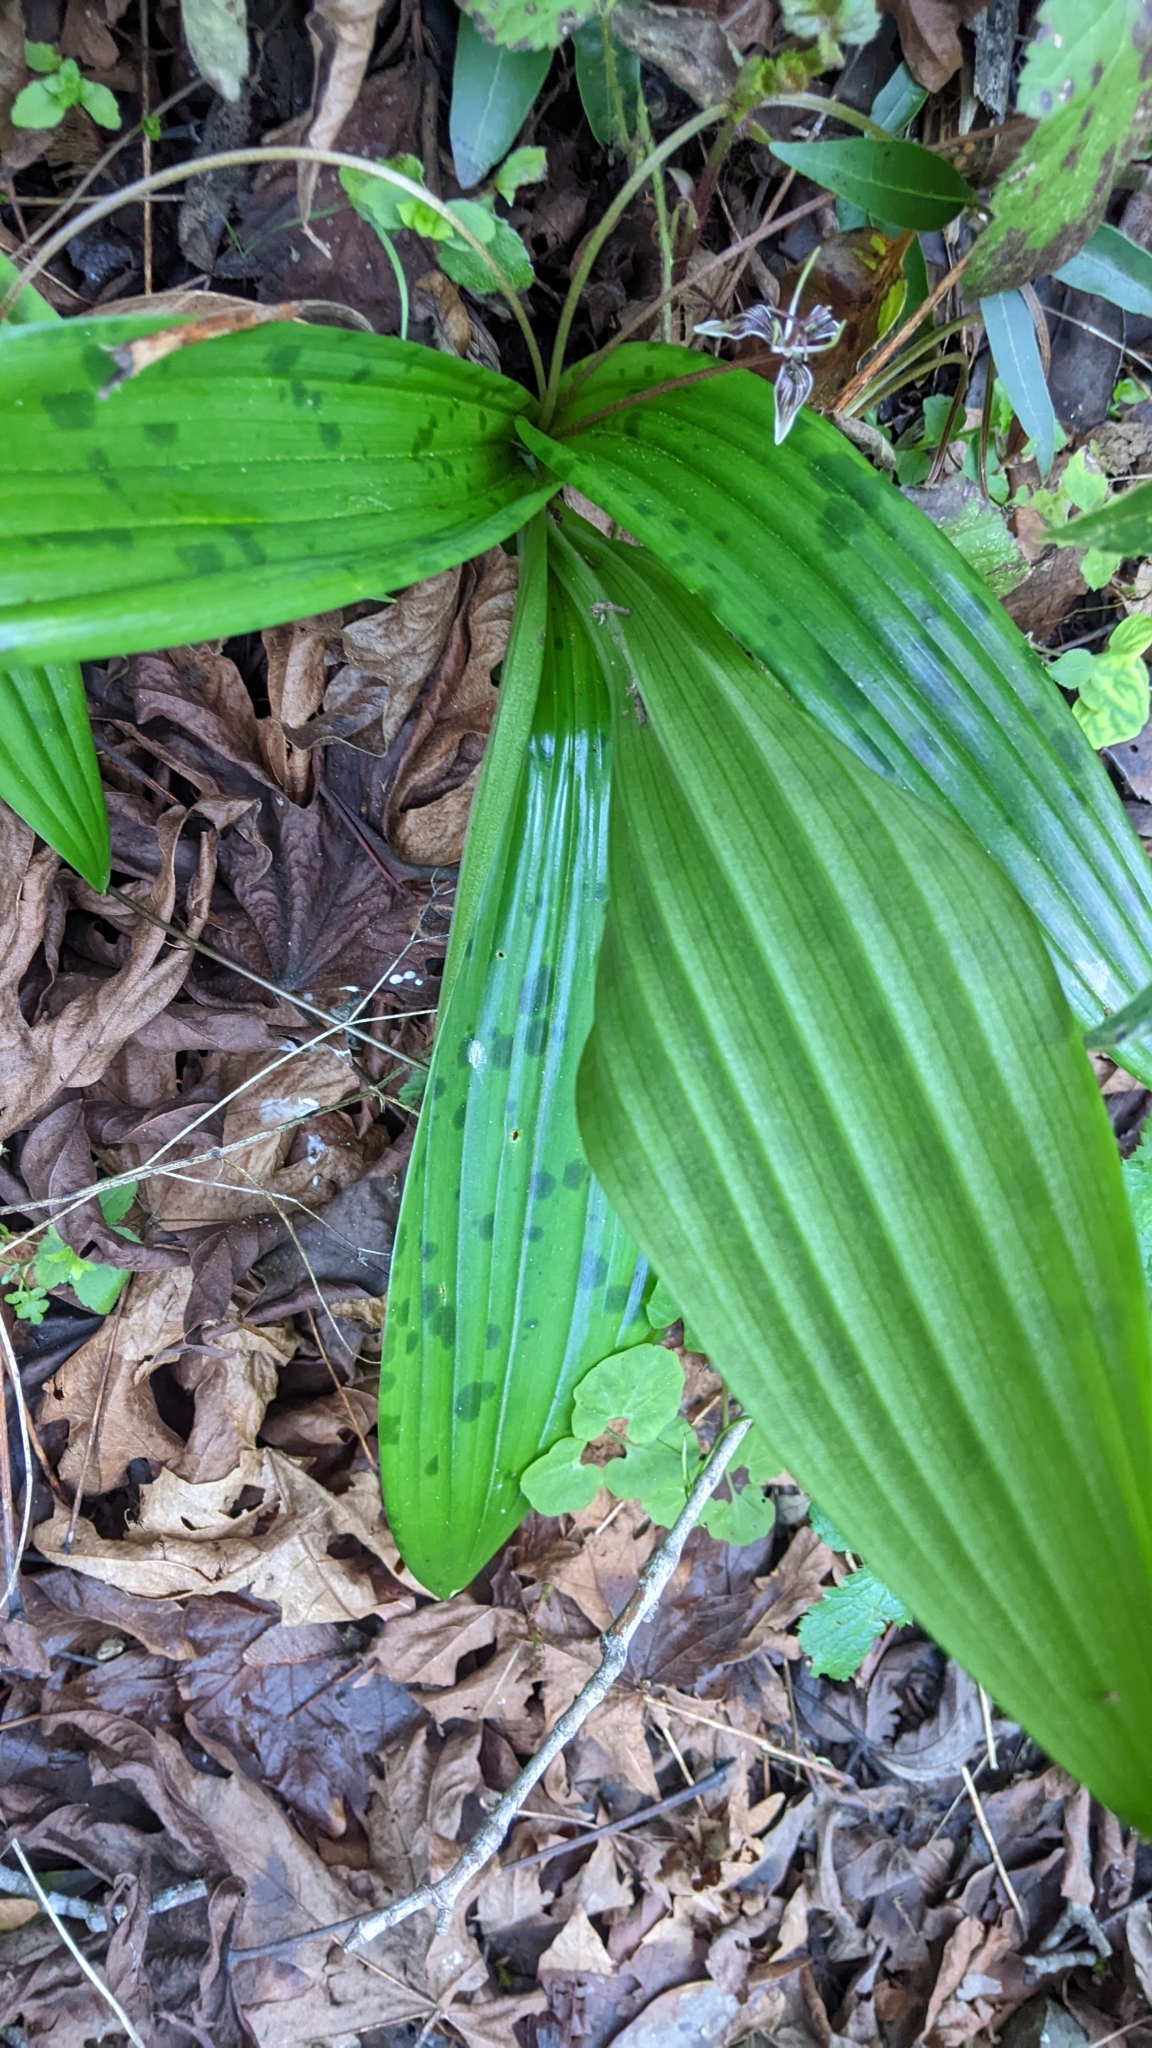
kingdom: Plantae
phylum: Tracheophyta
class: Liliopsida
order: Liliales
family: Liliaceae
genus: Scoliopus
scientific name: Scoliopus bigelovii
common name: Foetid adder's-tongue
